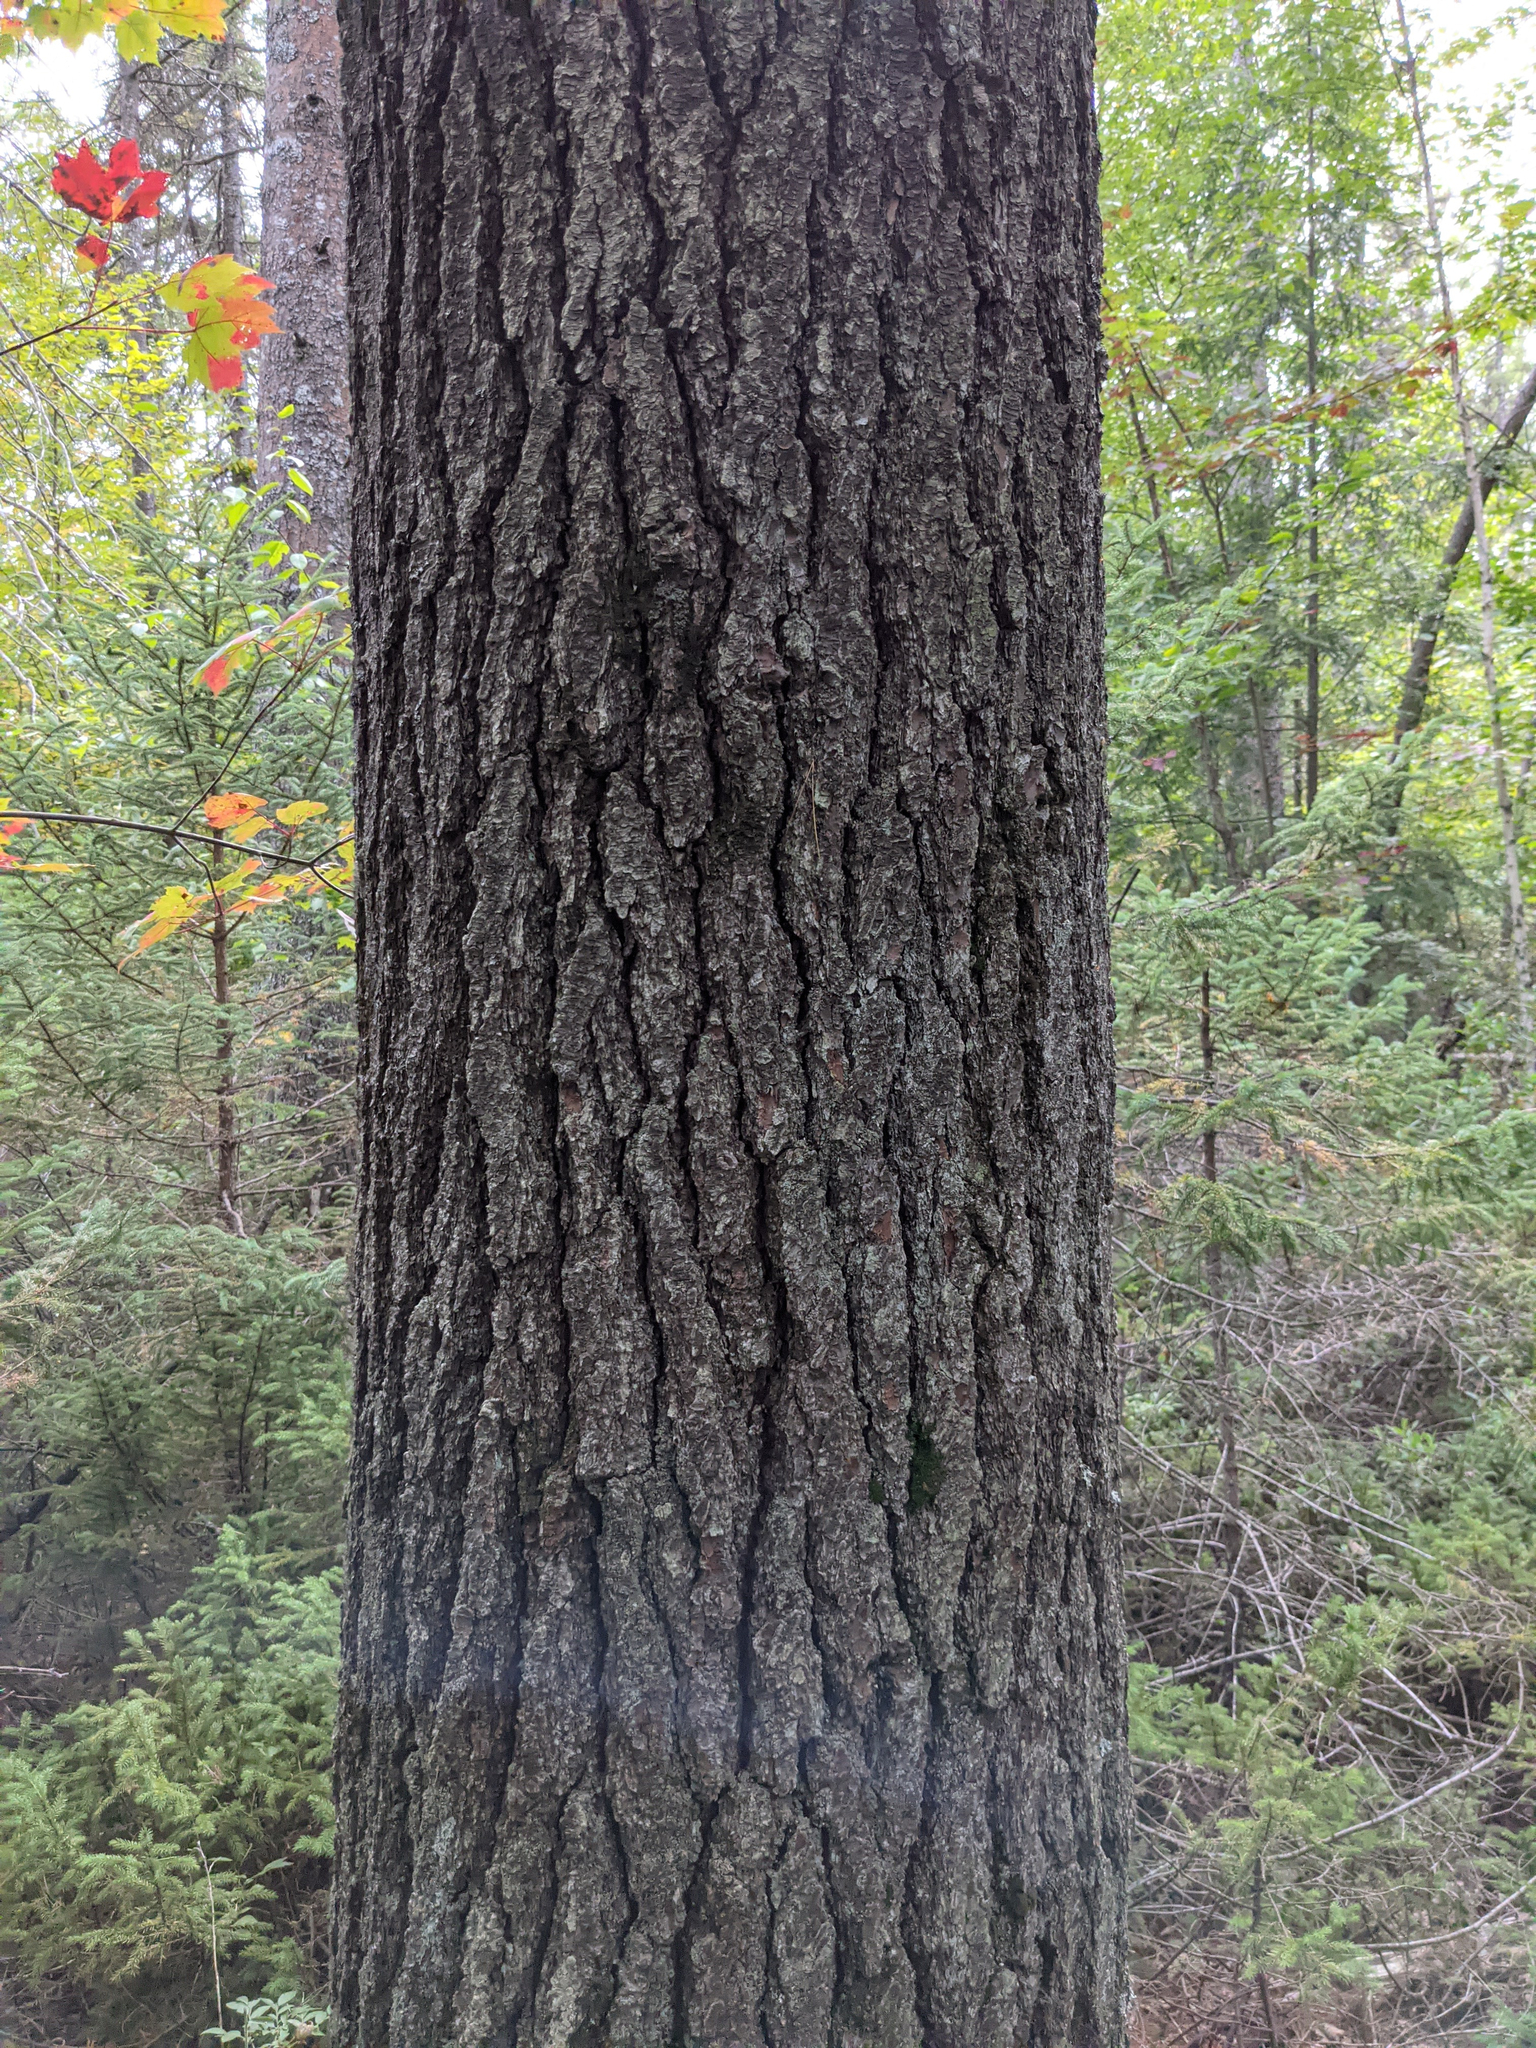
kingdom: Plantae
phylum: Tracheophyta
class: Pinopsida
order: Pinales
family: Pinaceae
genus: Pinus
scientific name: Pinus strobus
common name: Weymouth pine
